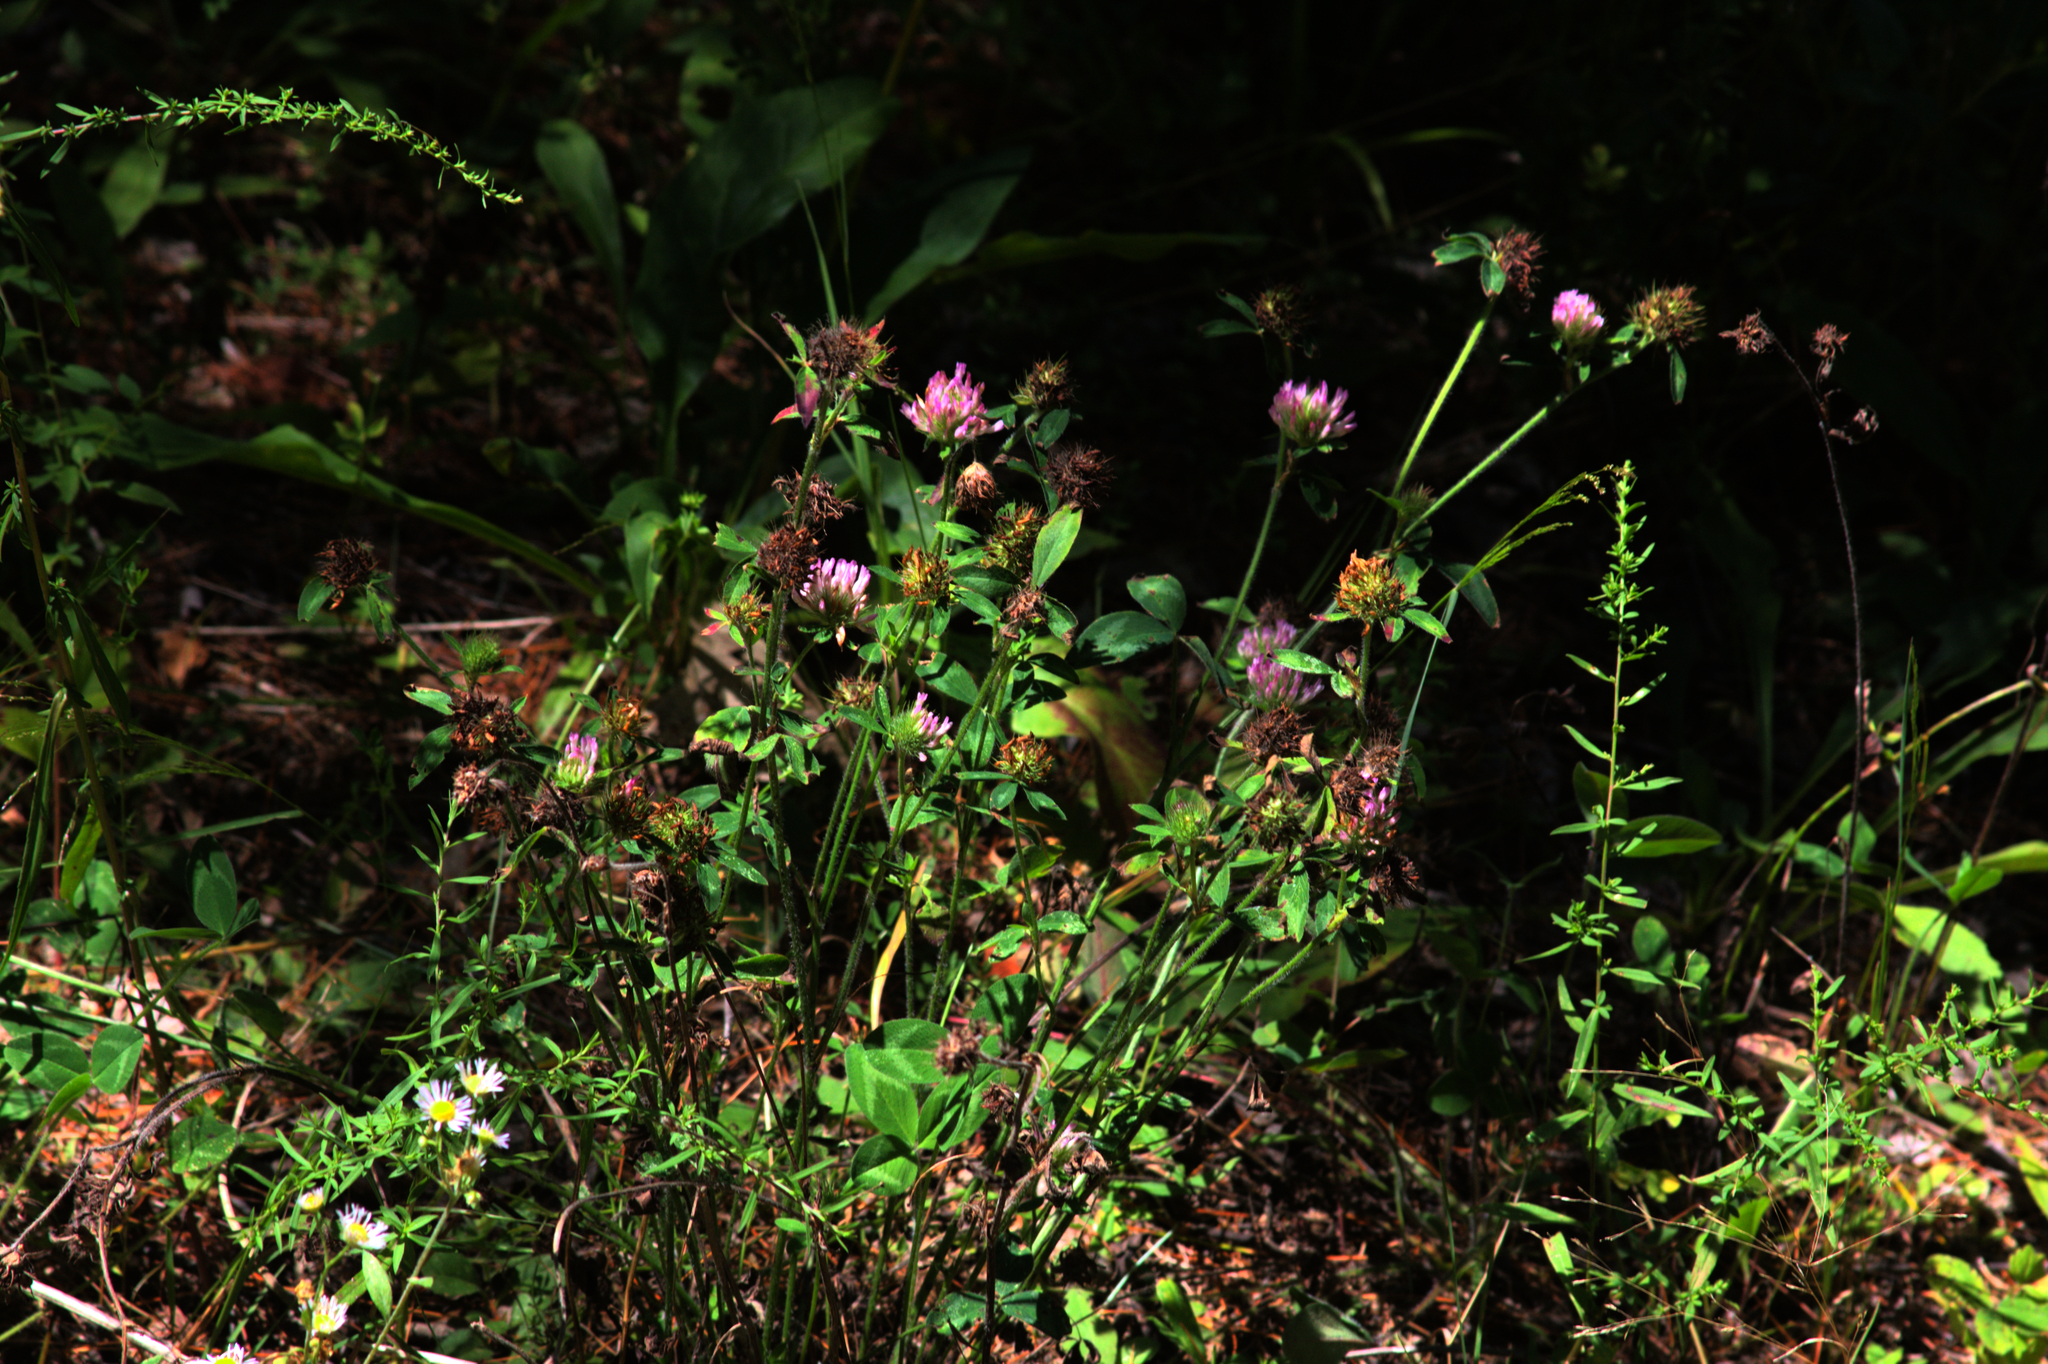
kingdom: Plantae
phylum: Tracheophyta
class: Magnoliopsida
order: Fabales
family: Fabaceae
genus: Trifolium
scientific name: Trifolium pratense
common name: Red clover
